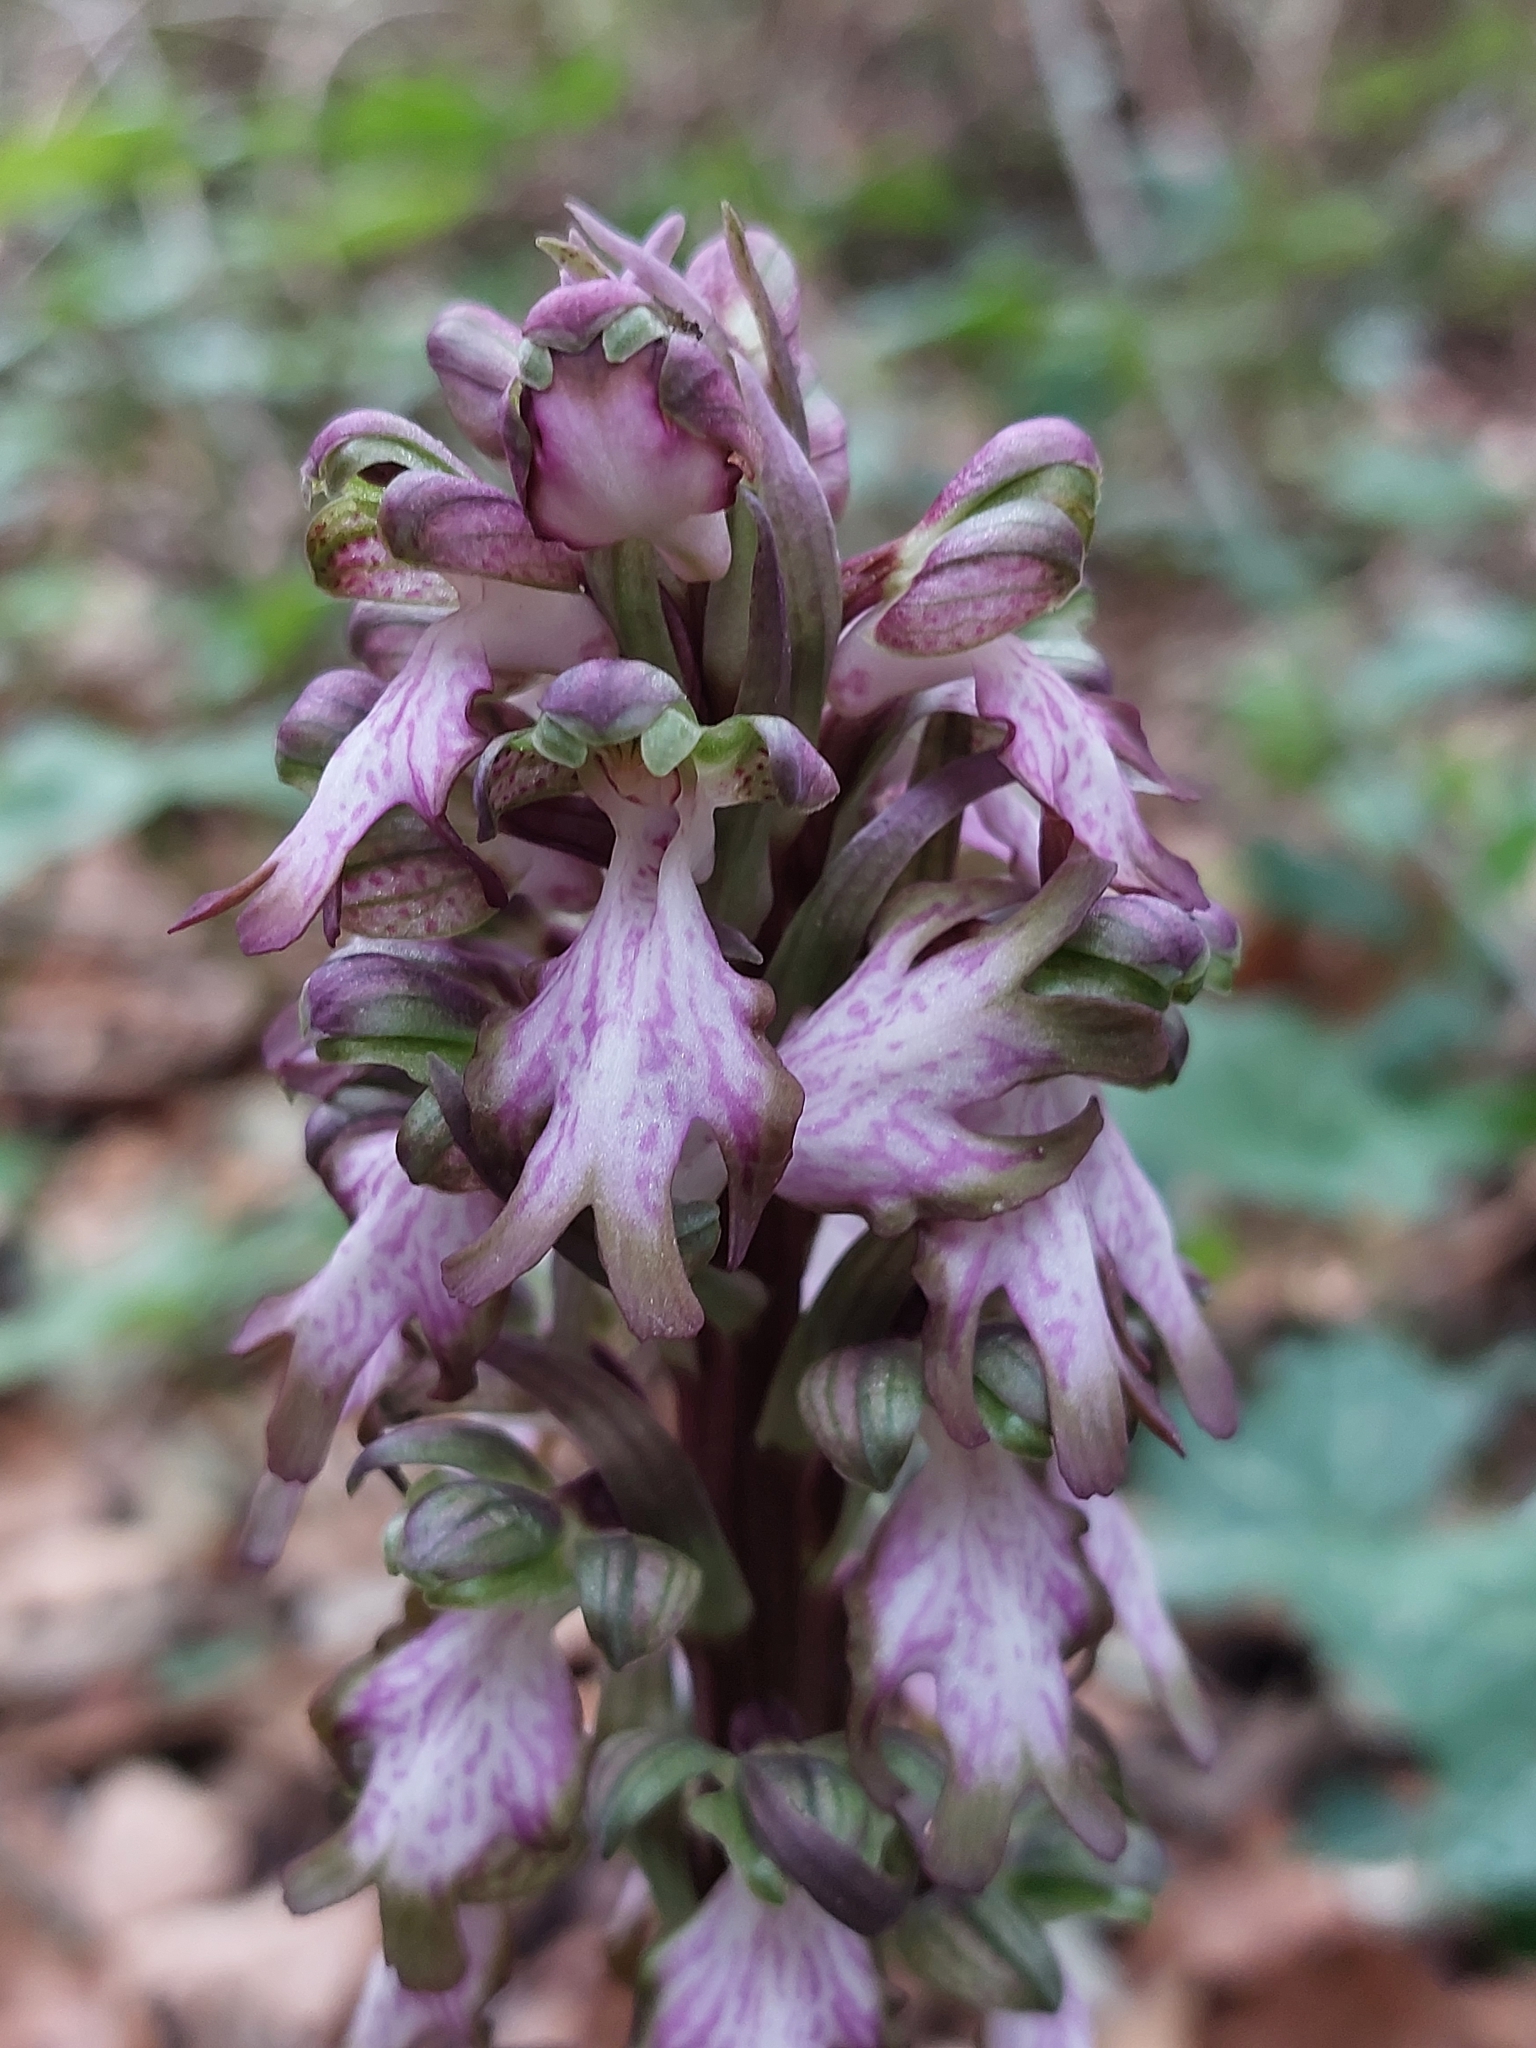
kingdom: Plantae
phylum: Tracheophyta
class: Liliopsida
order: Asparagales
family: Orchidaceae
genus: Himantoglossum
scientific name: Himantoglossum robertianum
